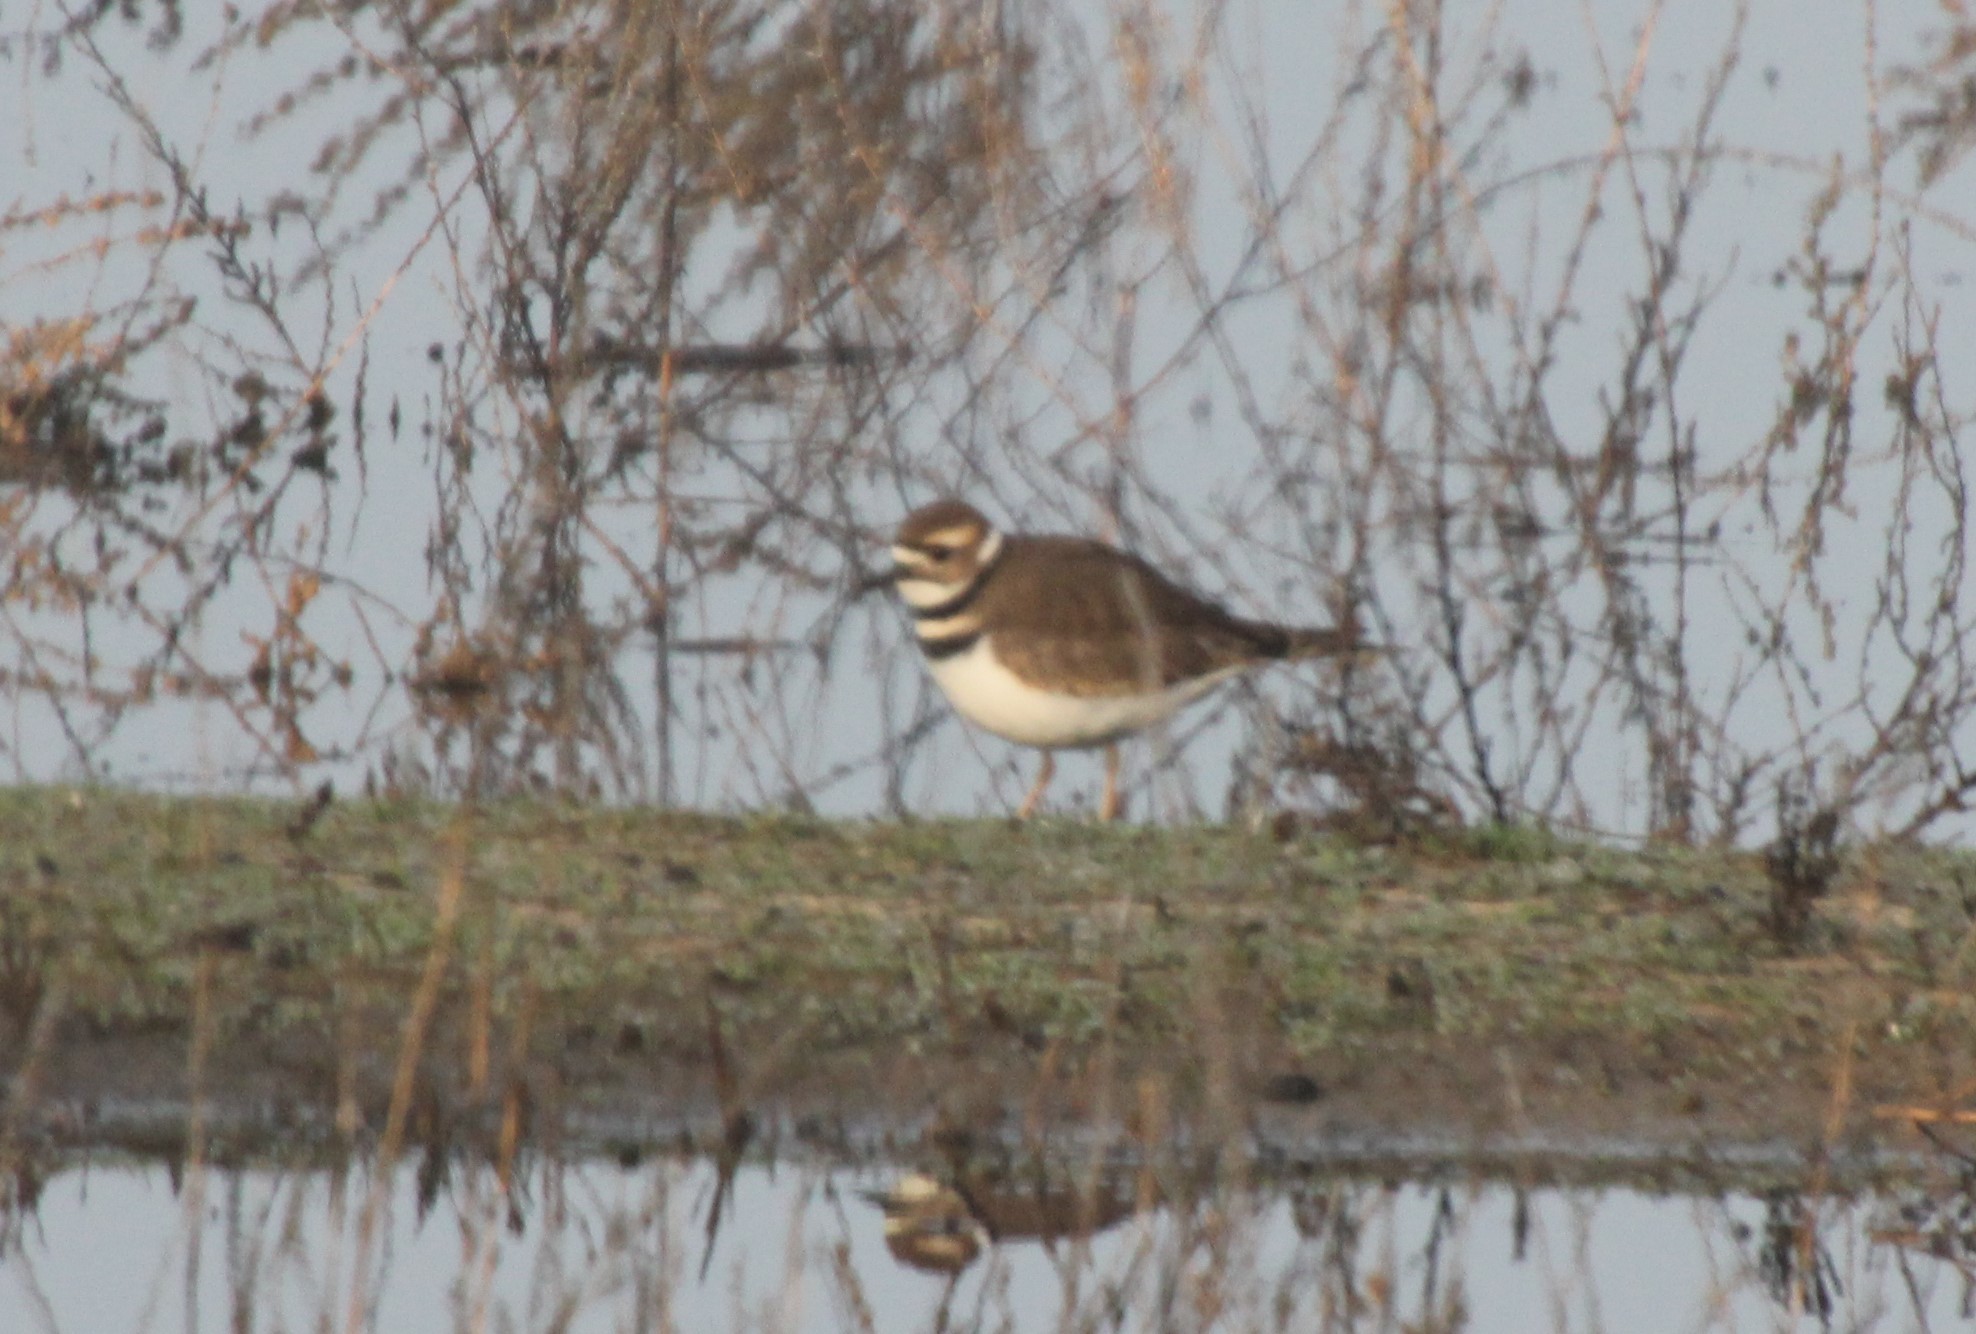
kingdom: Animalia
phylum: Chordata
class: Aves
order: Charadriiformes
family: Charadriidae
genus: Charadrius
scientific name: Charadrius vociferus
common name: Killdeer
